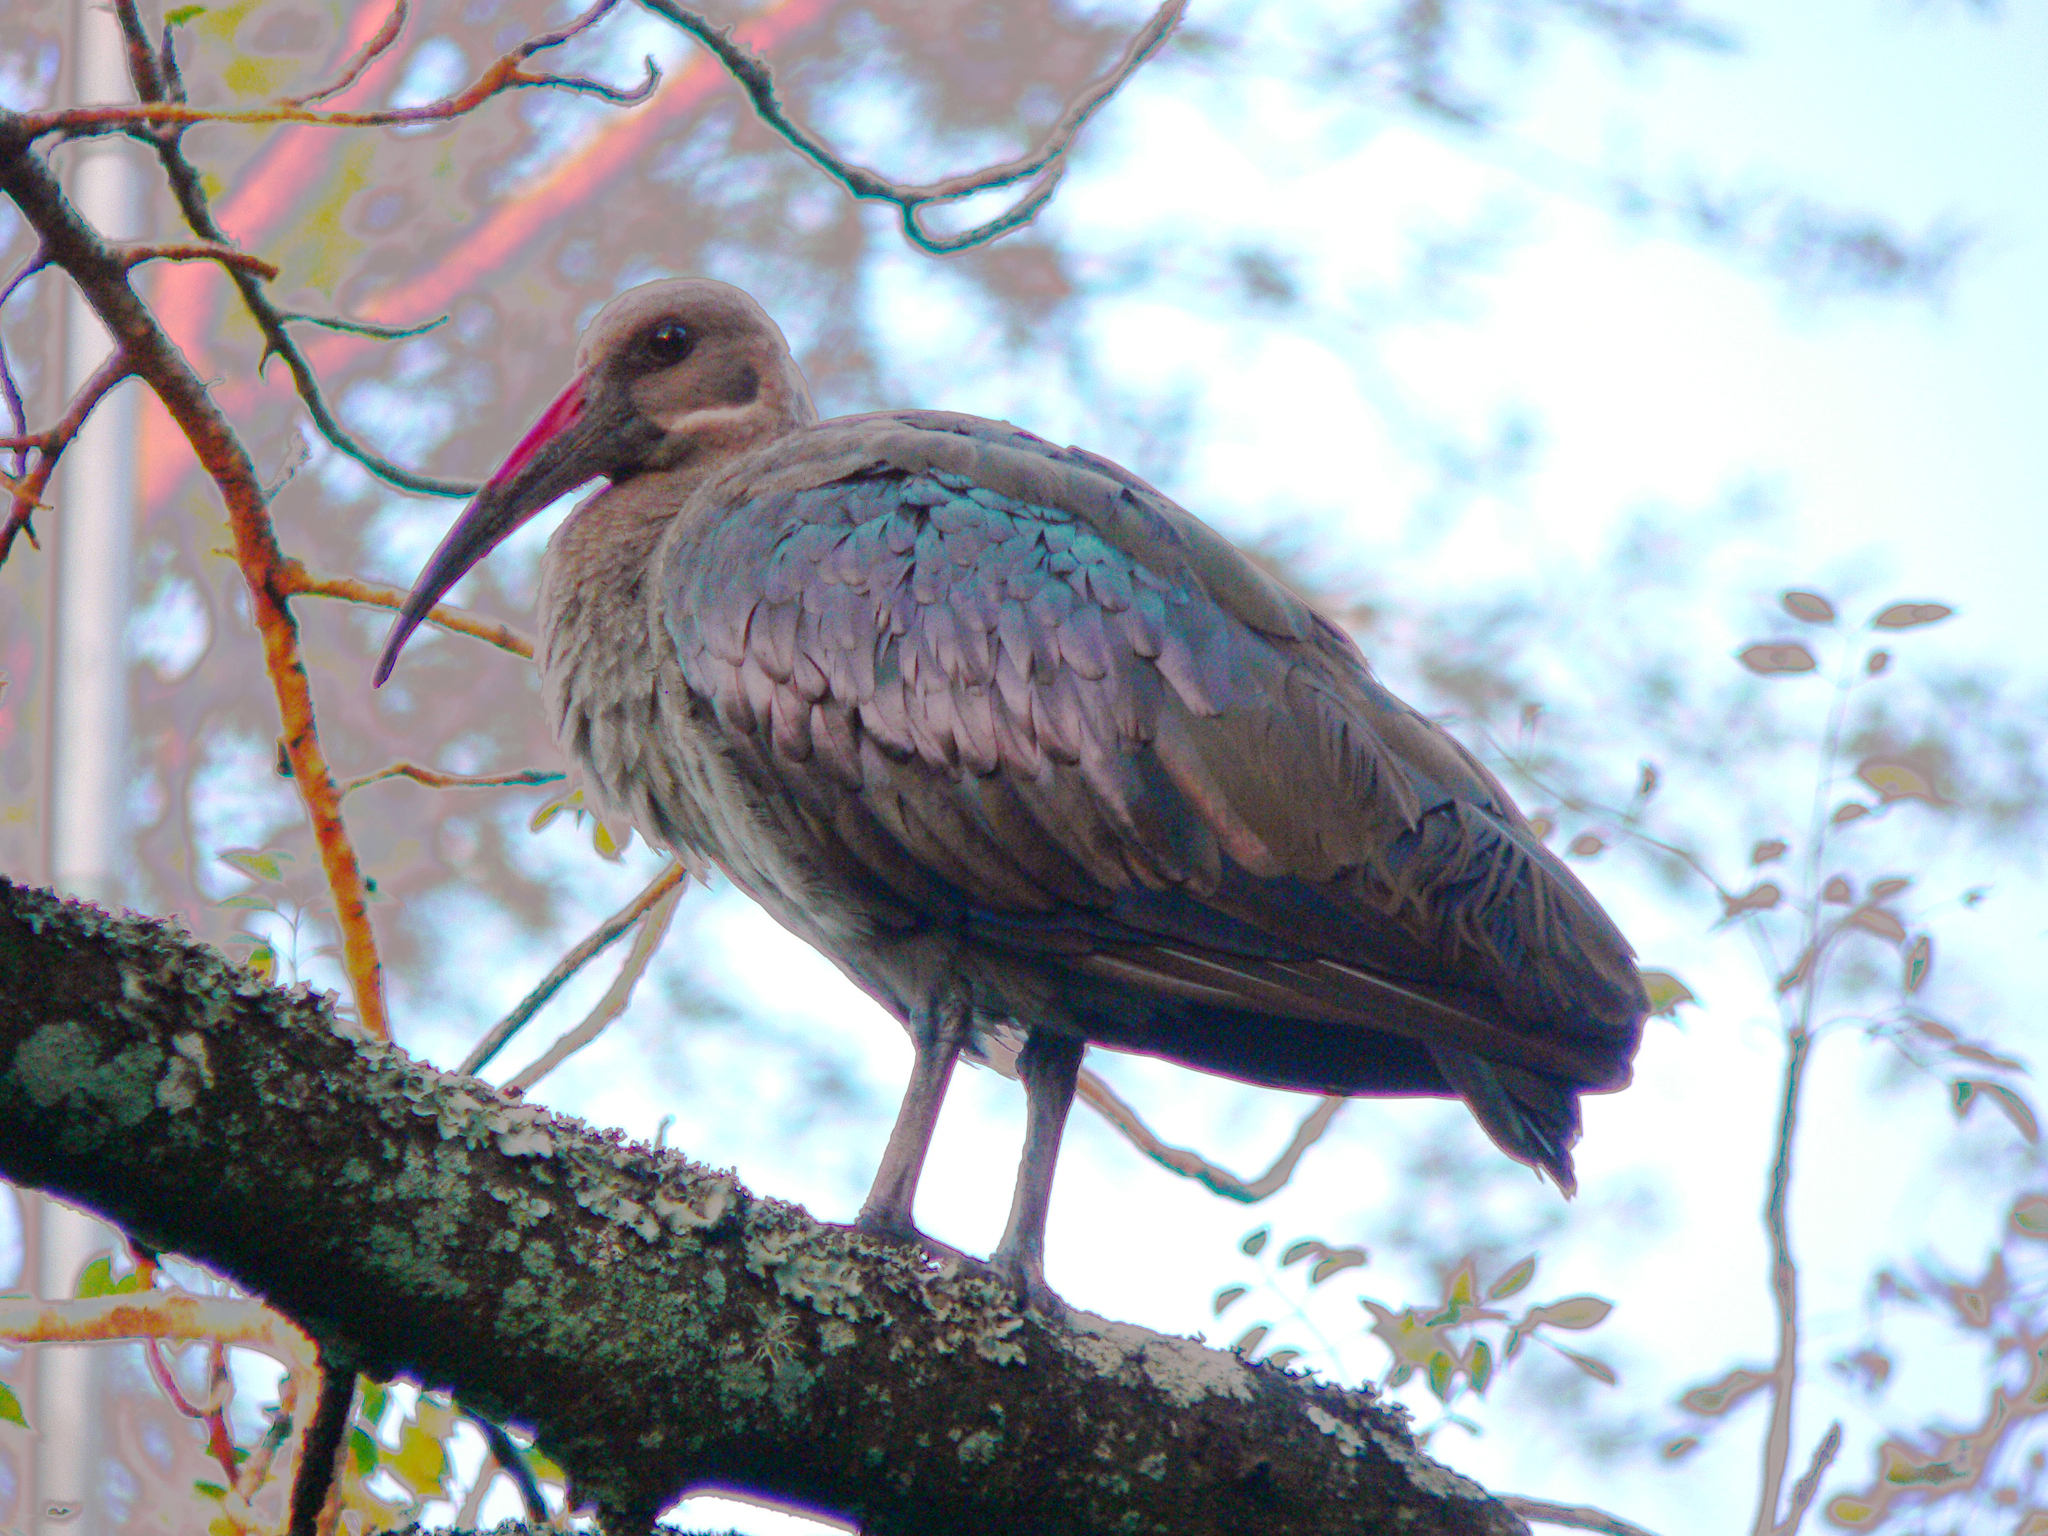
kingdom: Animalia
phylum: Chordata
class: Aves
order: Pelecaniformes
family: Threskiornithidae
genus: Bostrychia
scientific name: Bostrychia hagedash
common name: Hadada ibis
